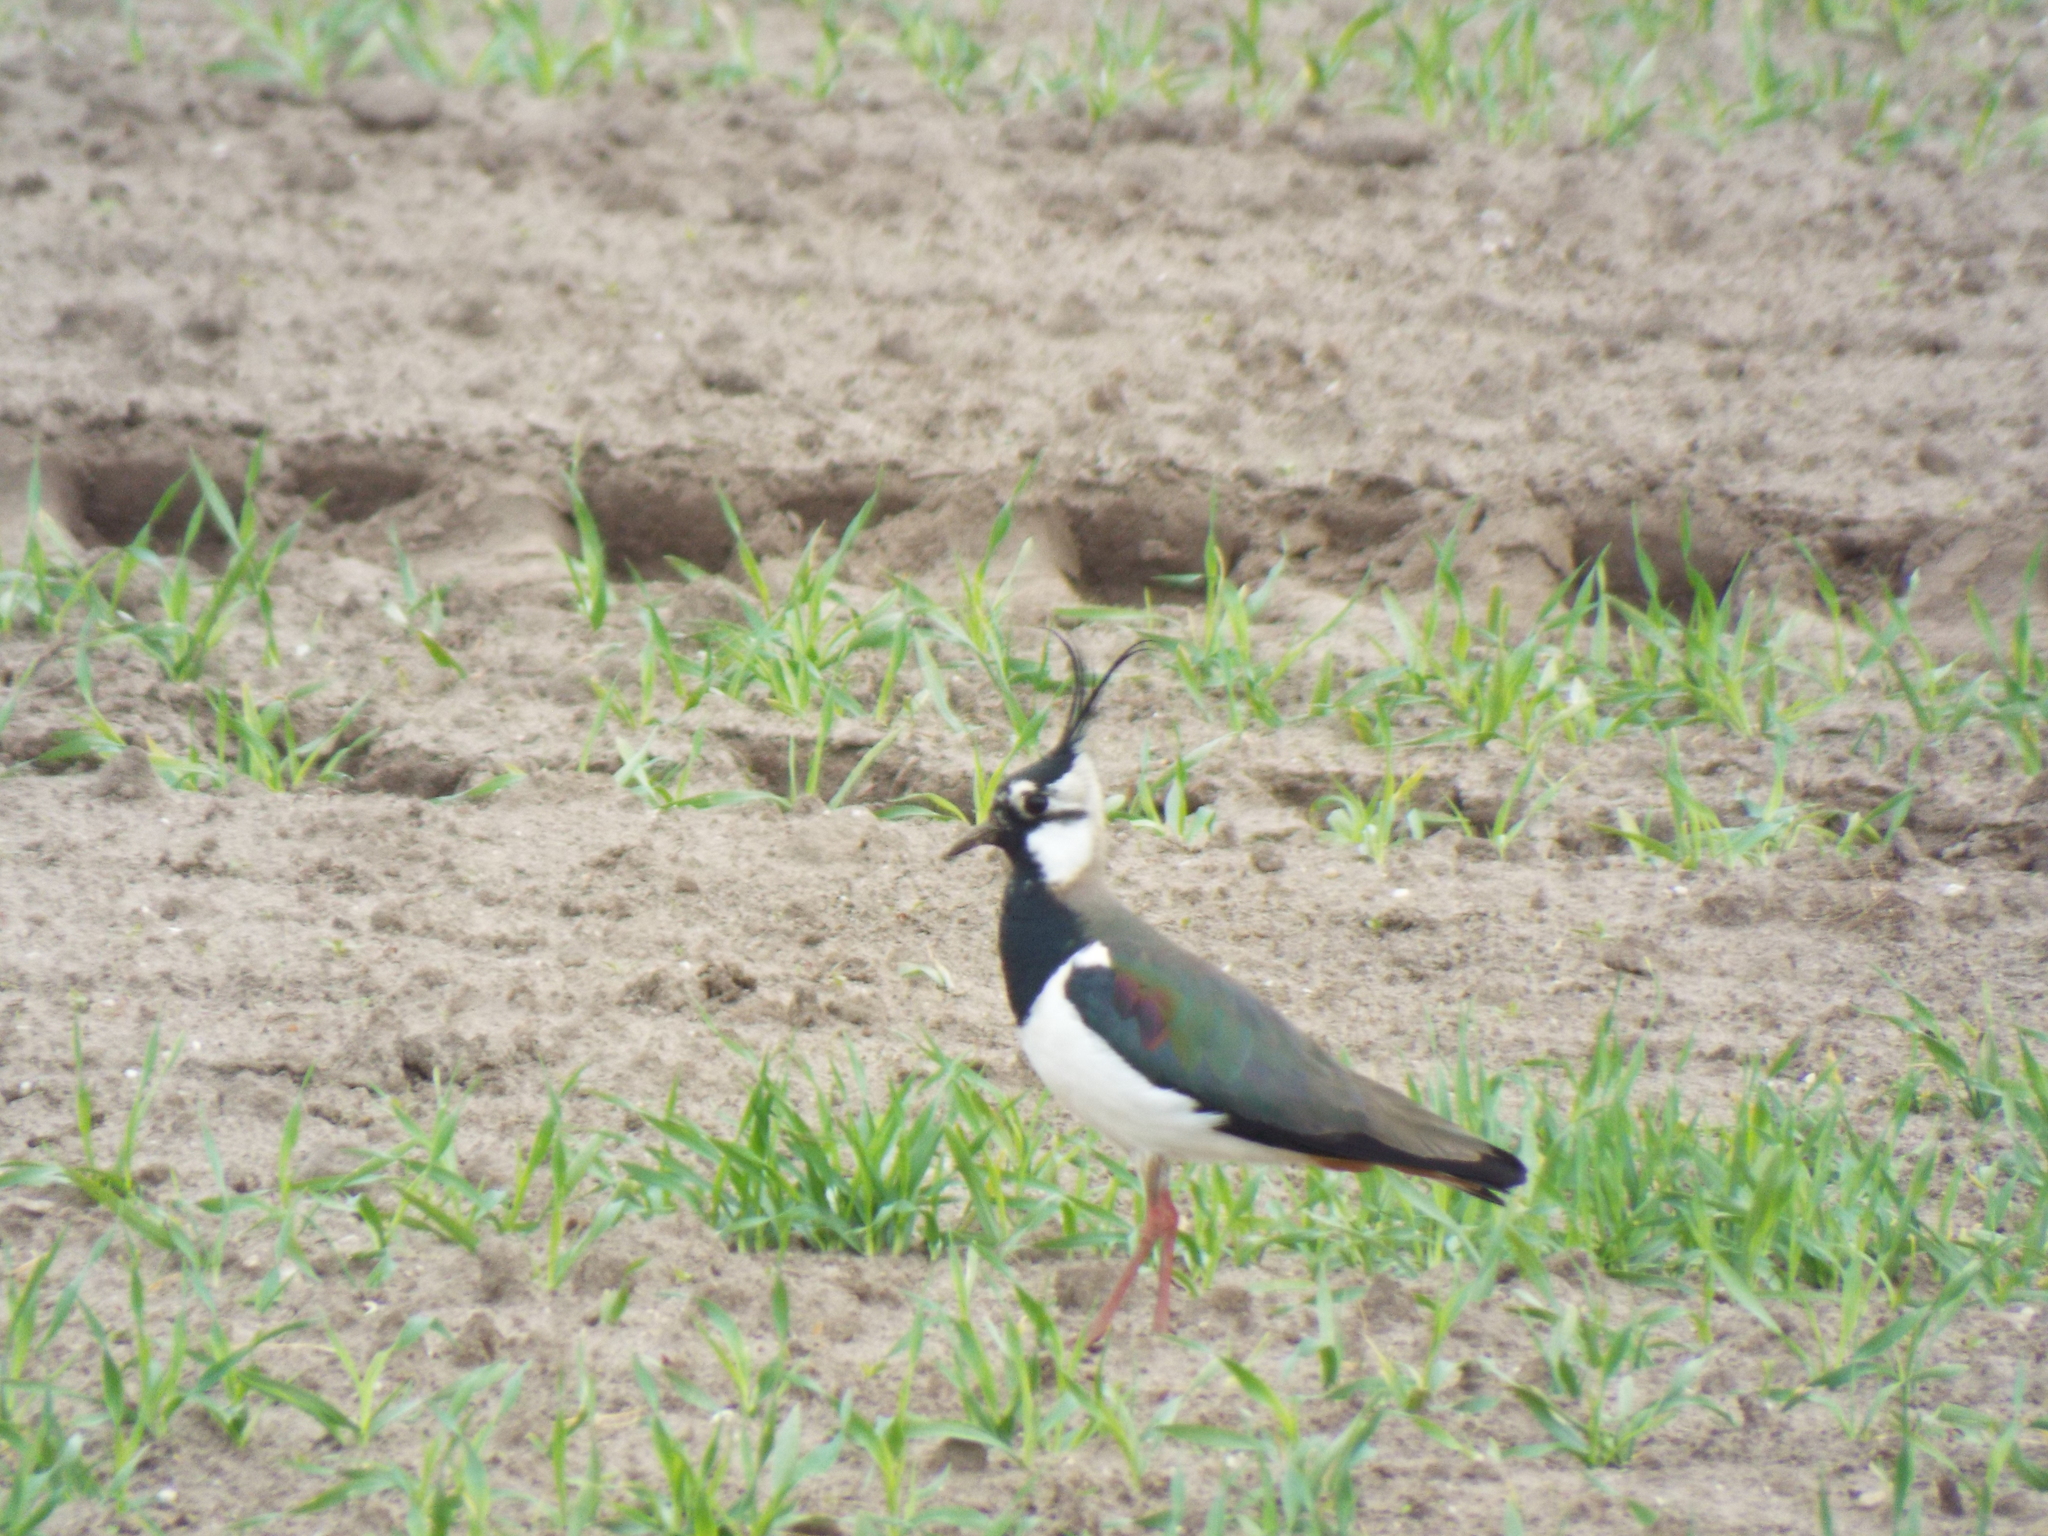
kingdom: Animalia
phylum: Chordata
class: Aves
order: Charadriiformes
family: Charadriidae
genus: Vanellus
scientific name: Vanellus vanellus
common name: Northern lapwing
